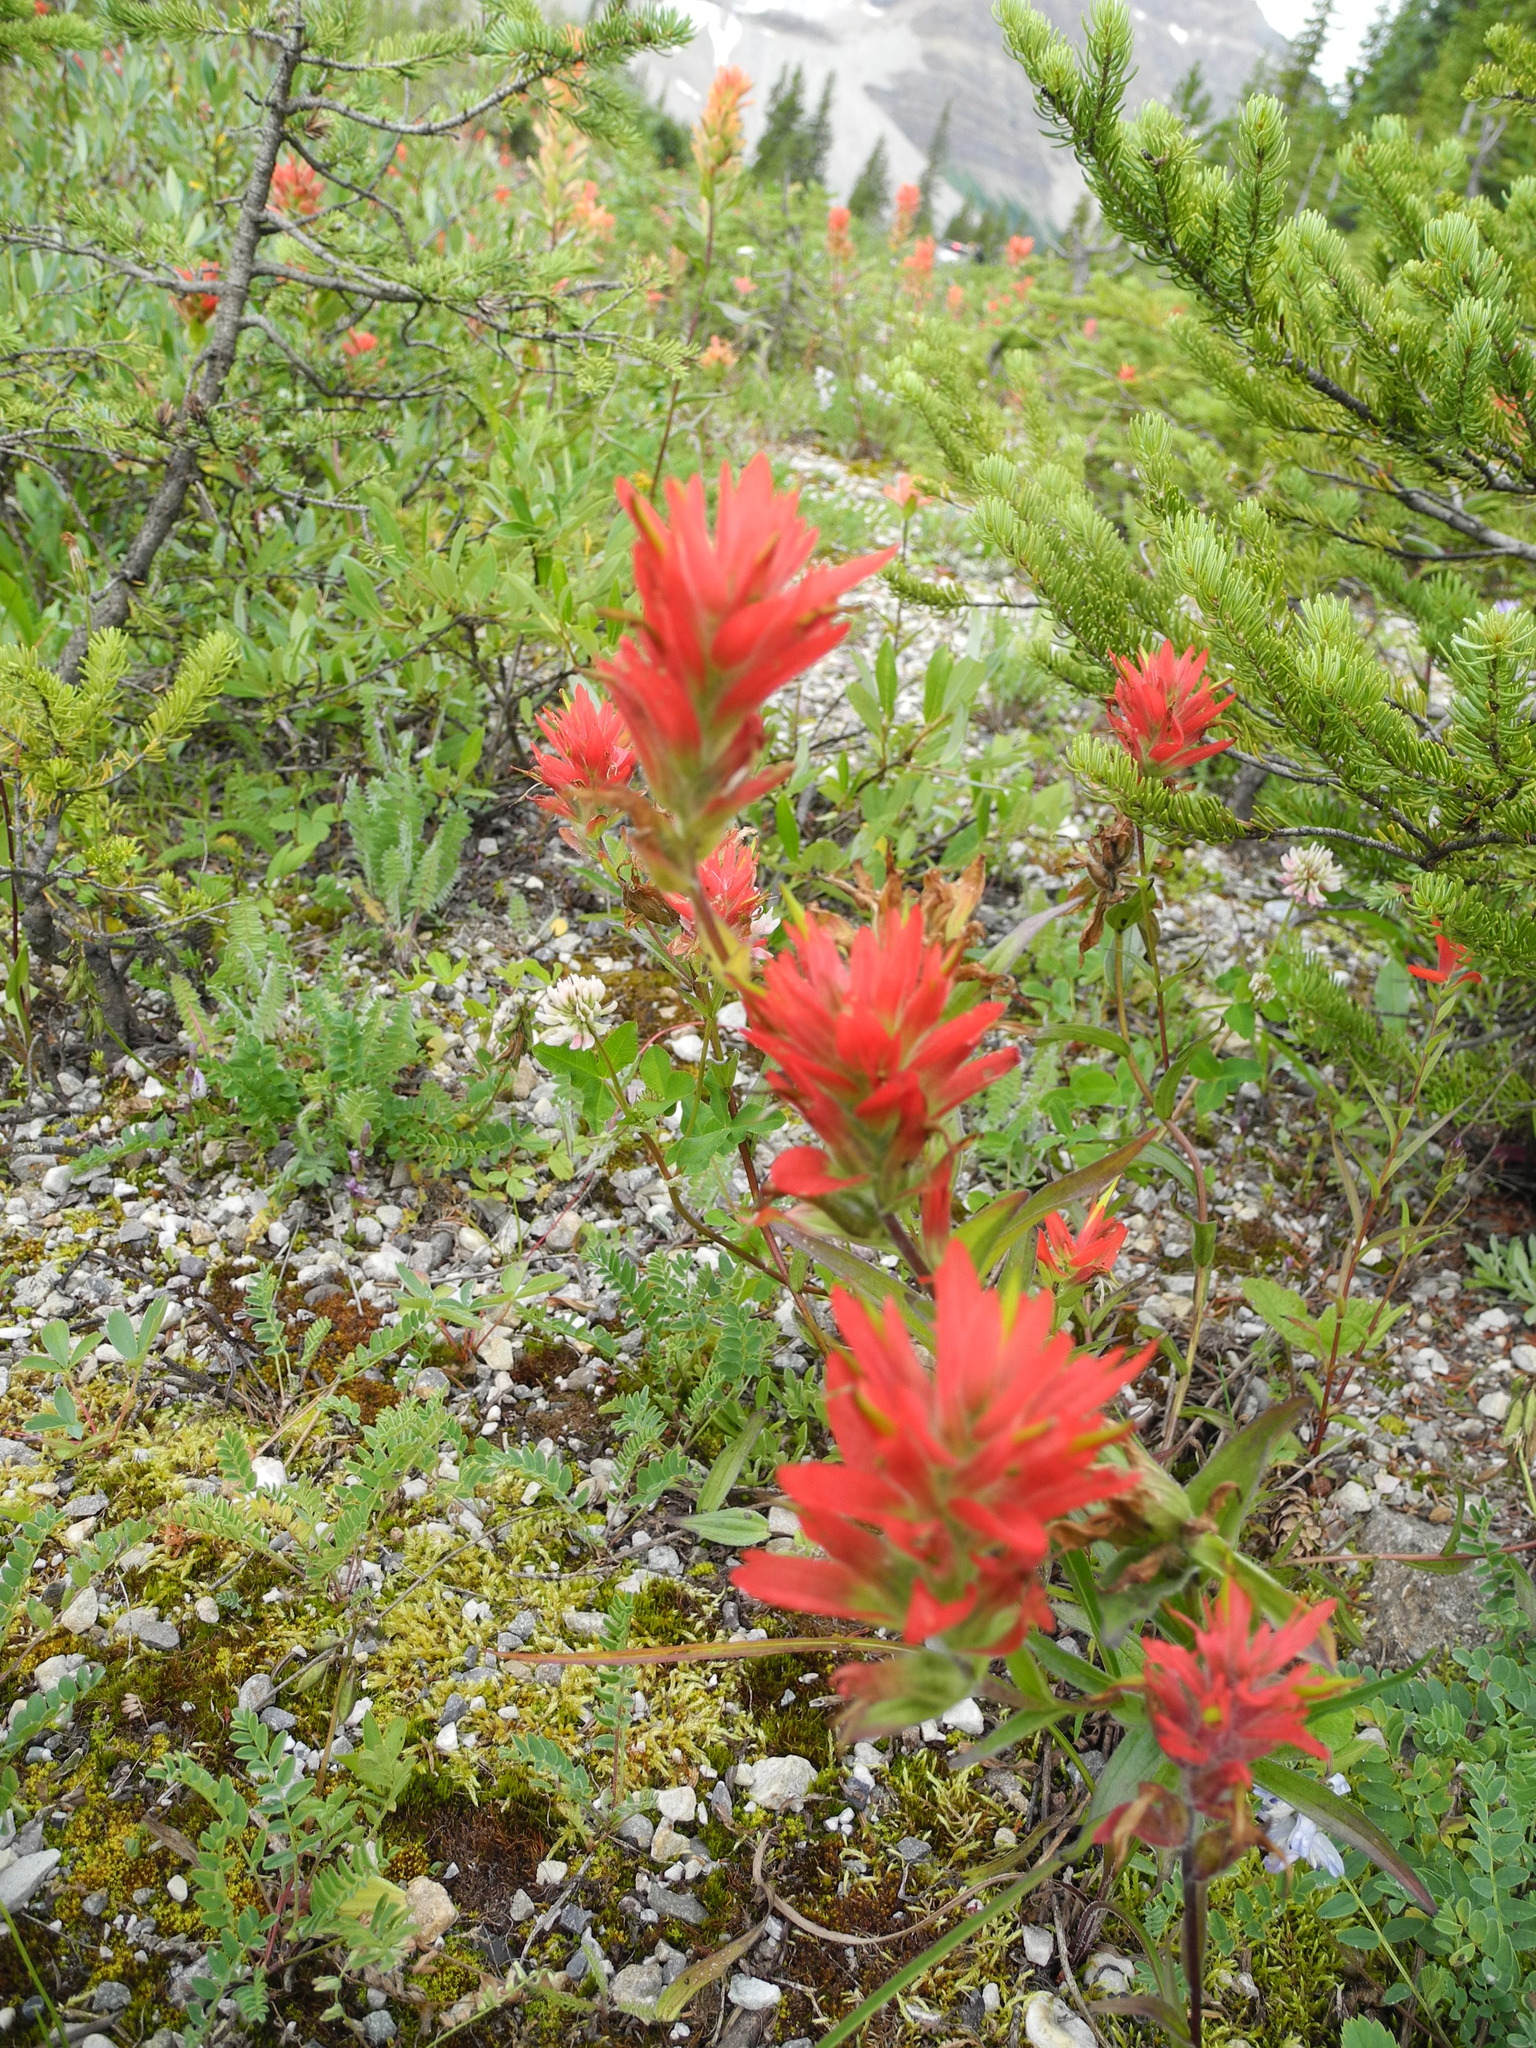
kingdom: Plantae
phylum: Tracheophyta
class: Magnoliopsida
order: Lamiales
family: Orobanchaceae
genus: Castilleja
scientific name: Castilleja miniata
